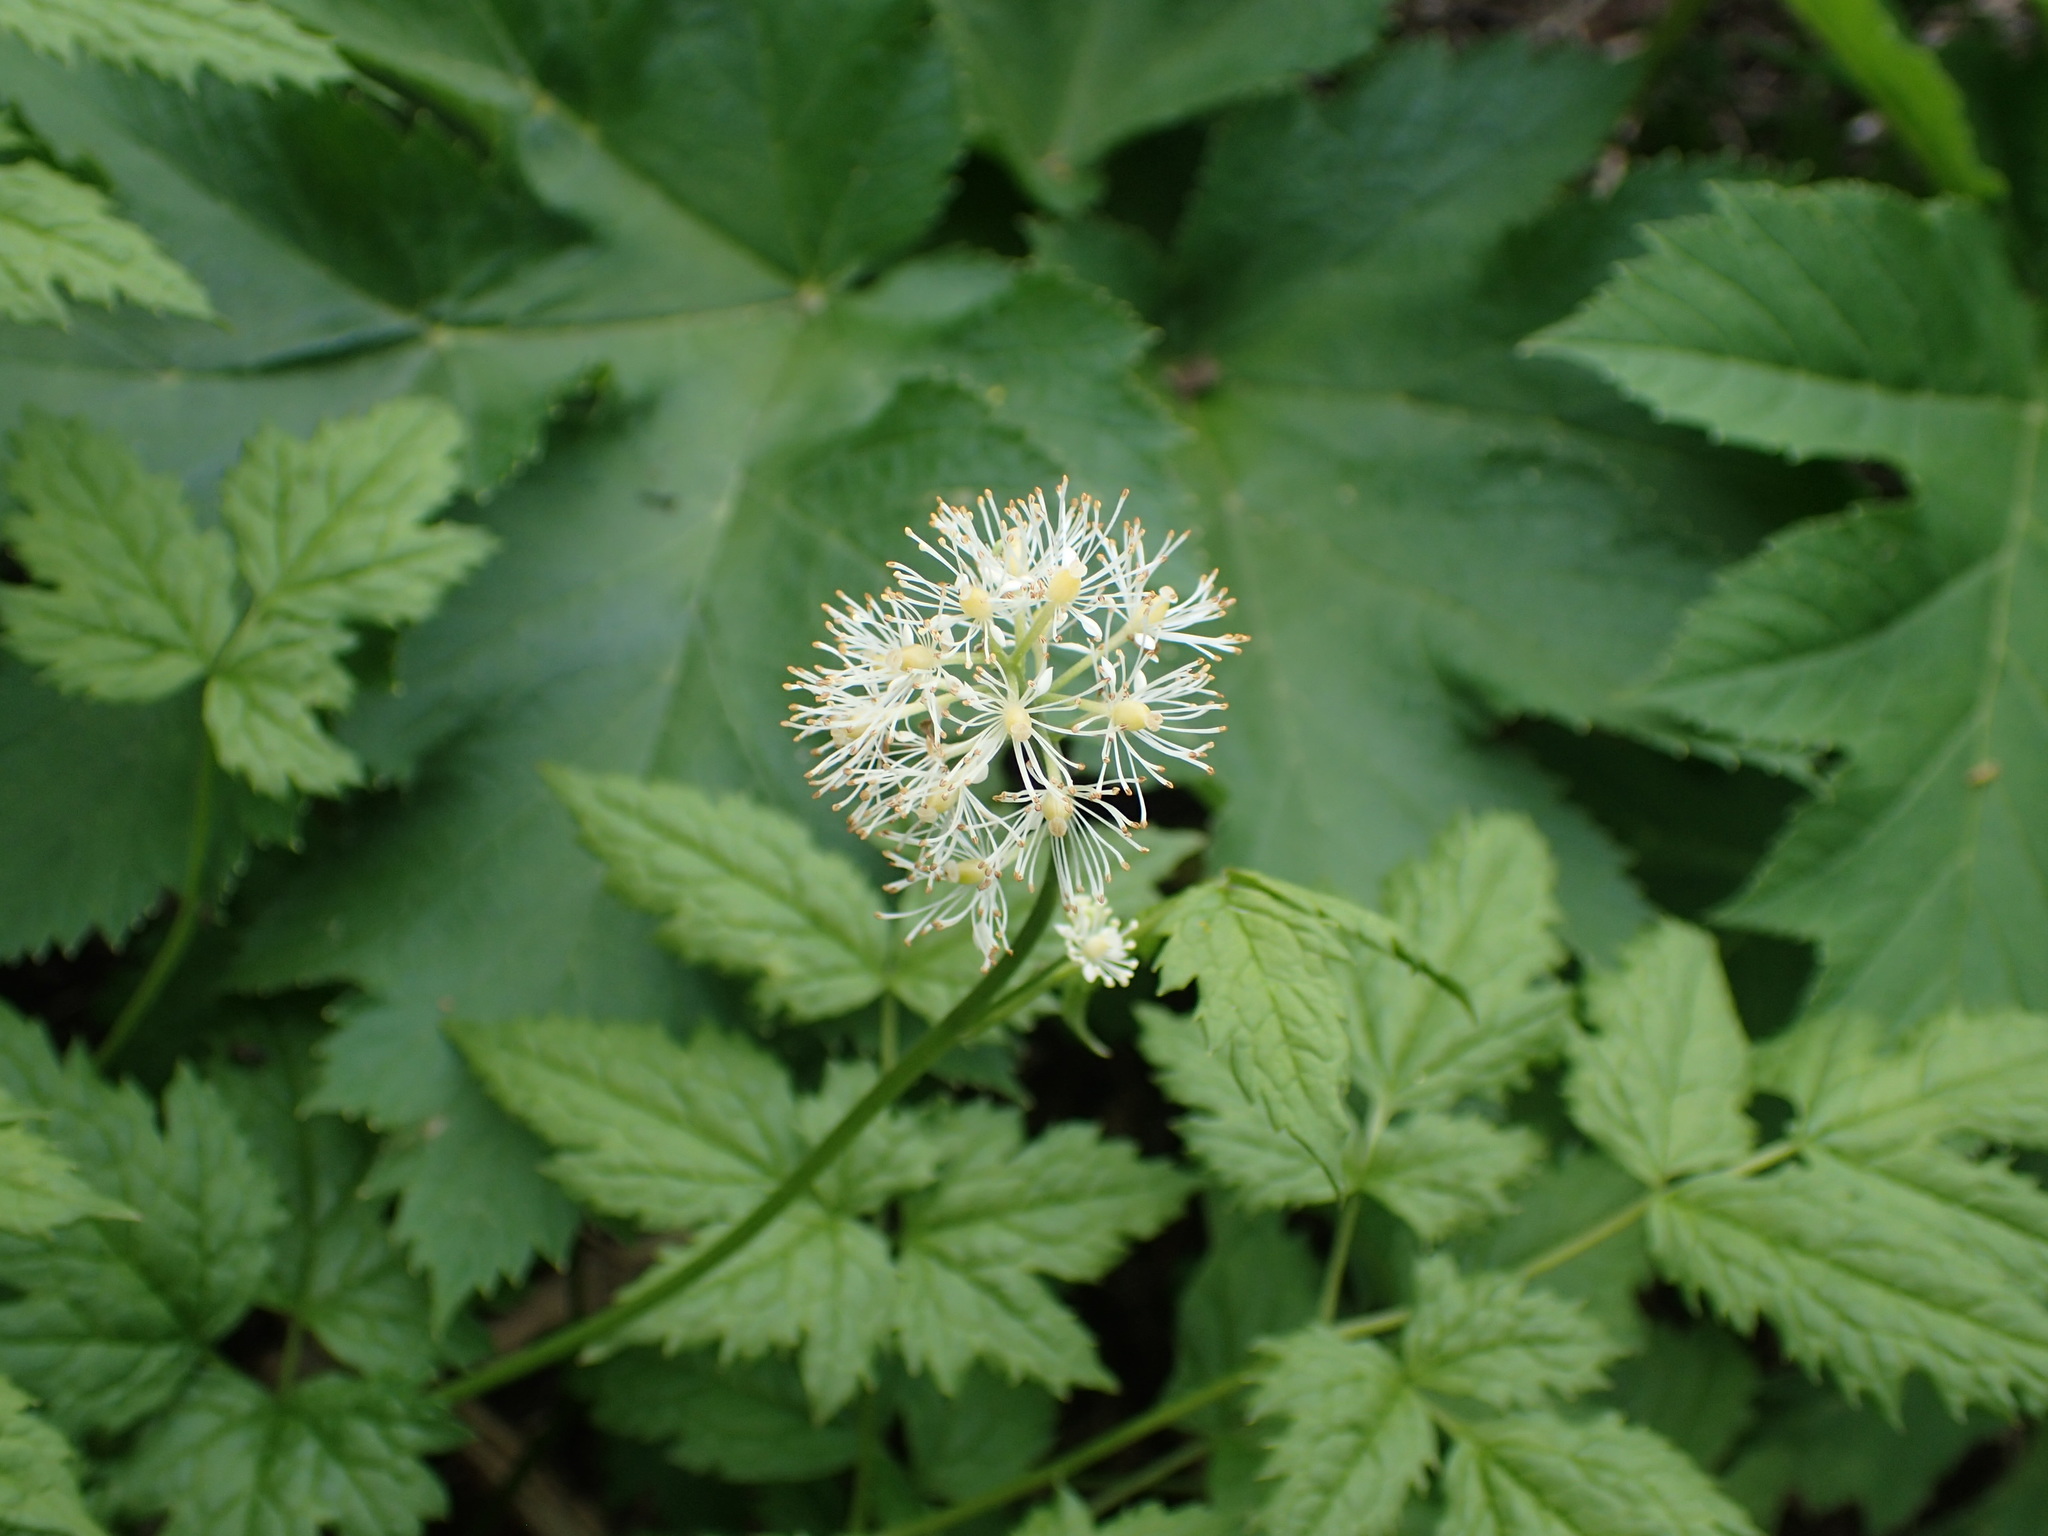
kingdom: Plantae
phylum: Tracheophyta
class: Magnoliopsida
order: Ranunculales
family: Ranunculaceae
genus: Actaea
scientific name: Actaea rubra
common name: Red baneberry
